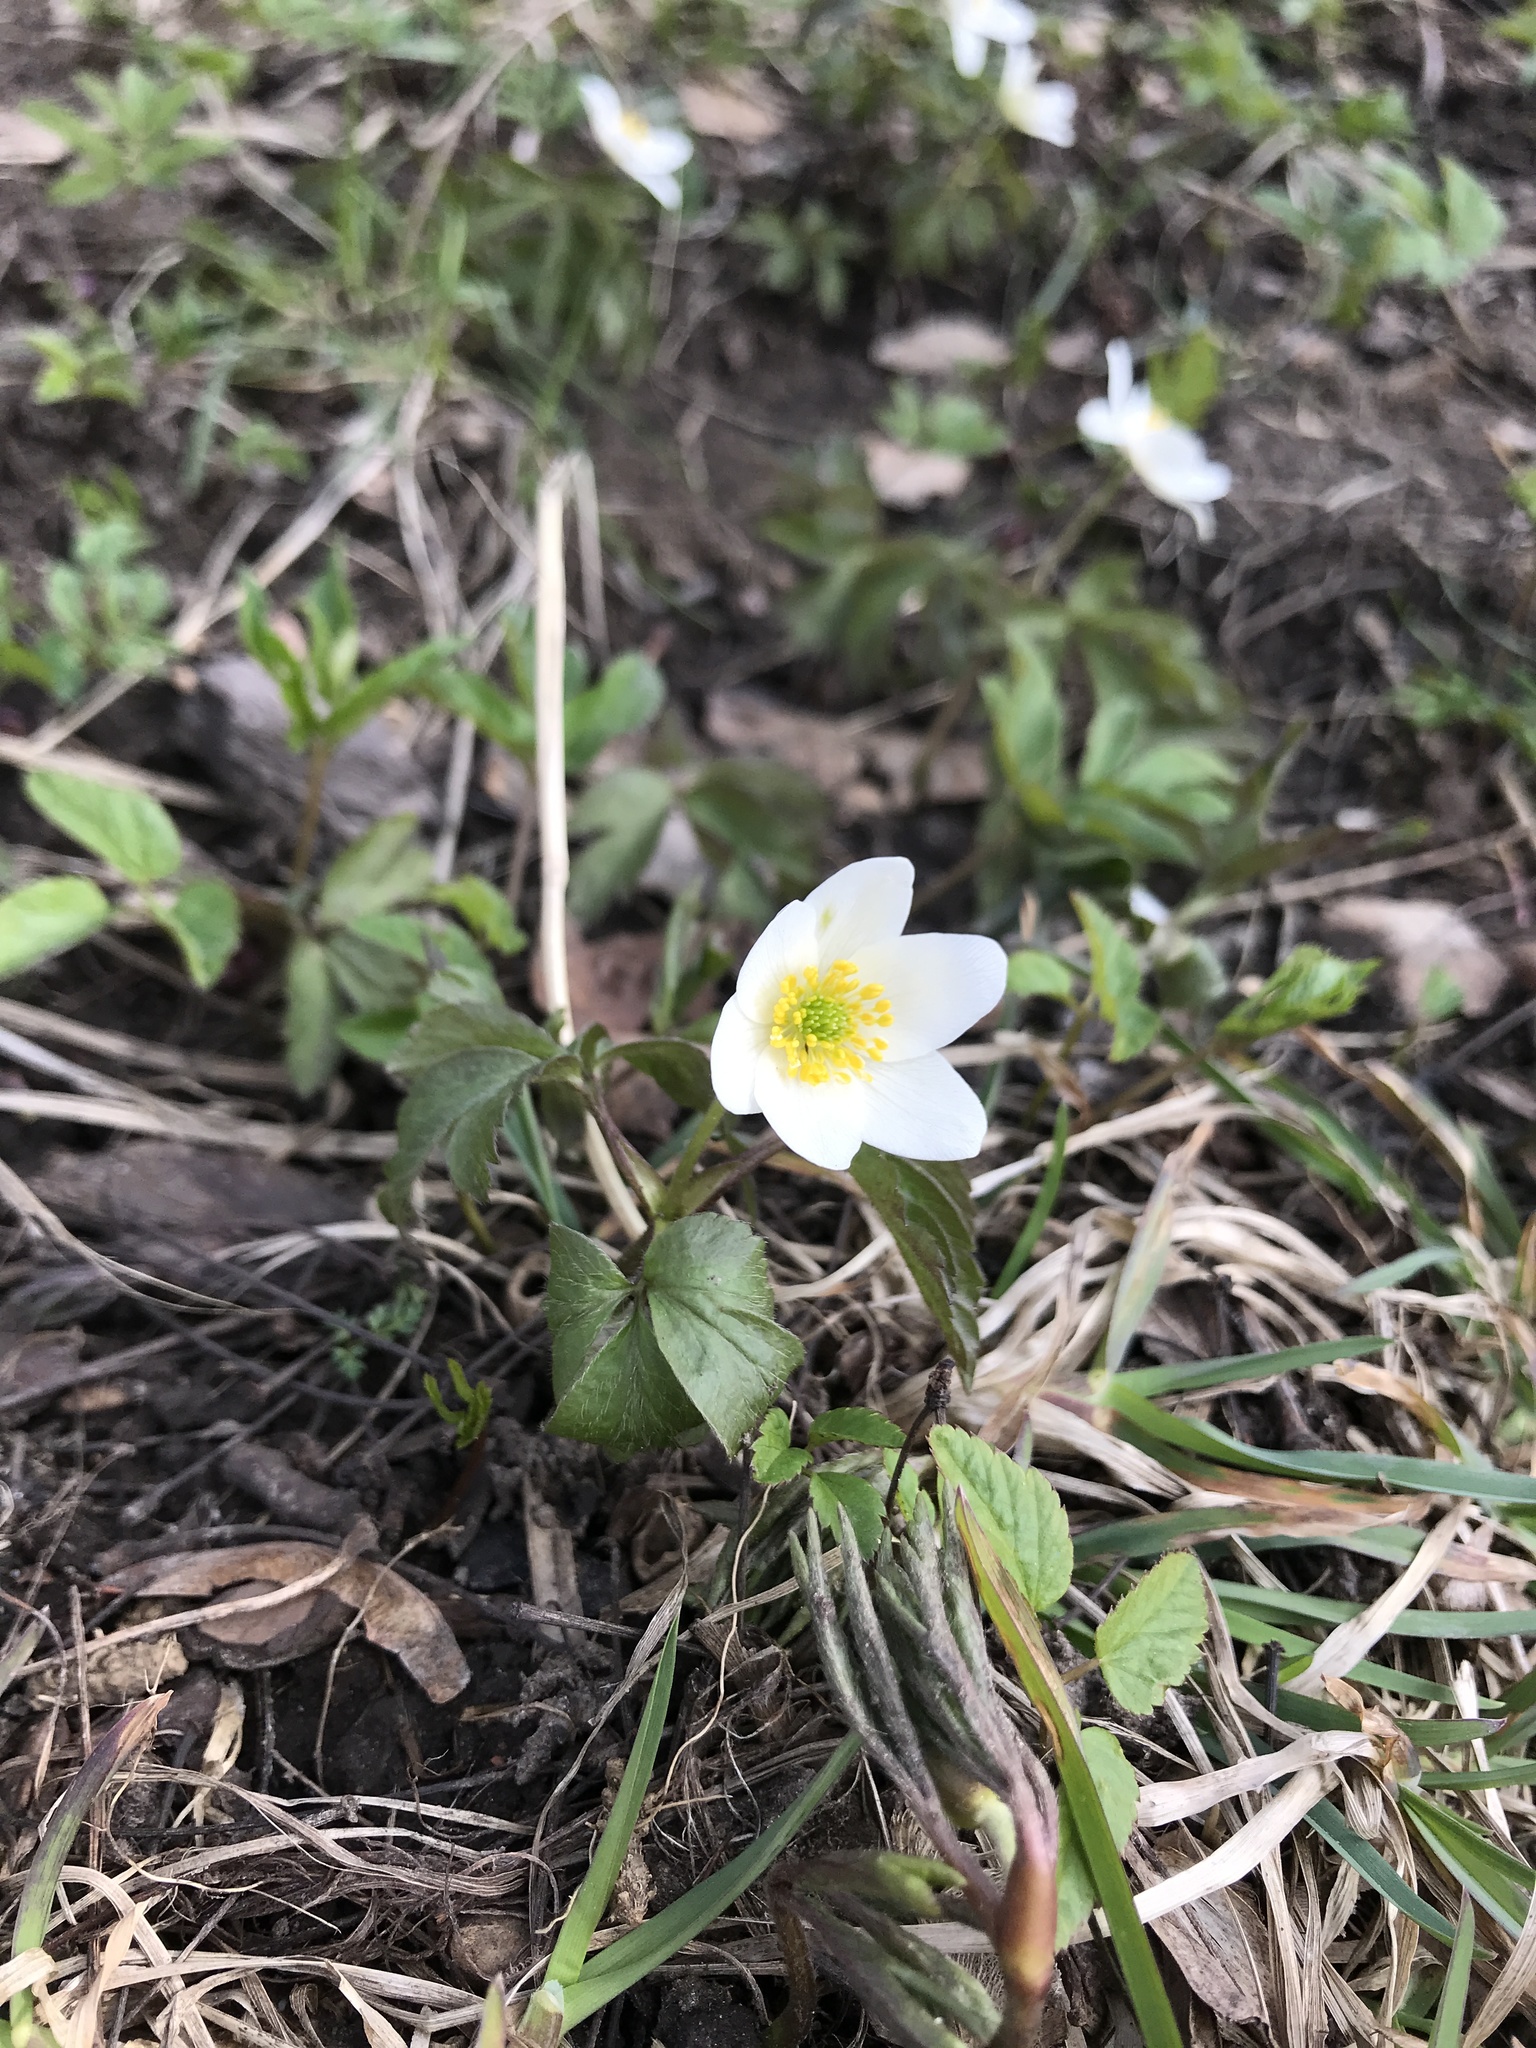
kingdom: Plantae
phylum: Tracheophyta
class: Magnoliopsida
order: Ranunculales
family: Ranunculaceae
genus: Anemone
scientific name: Anemone nemorosa
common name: Wood anemone
